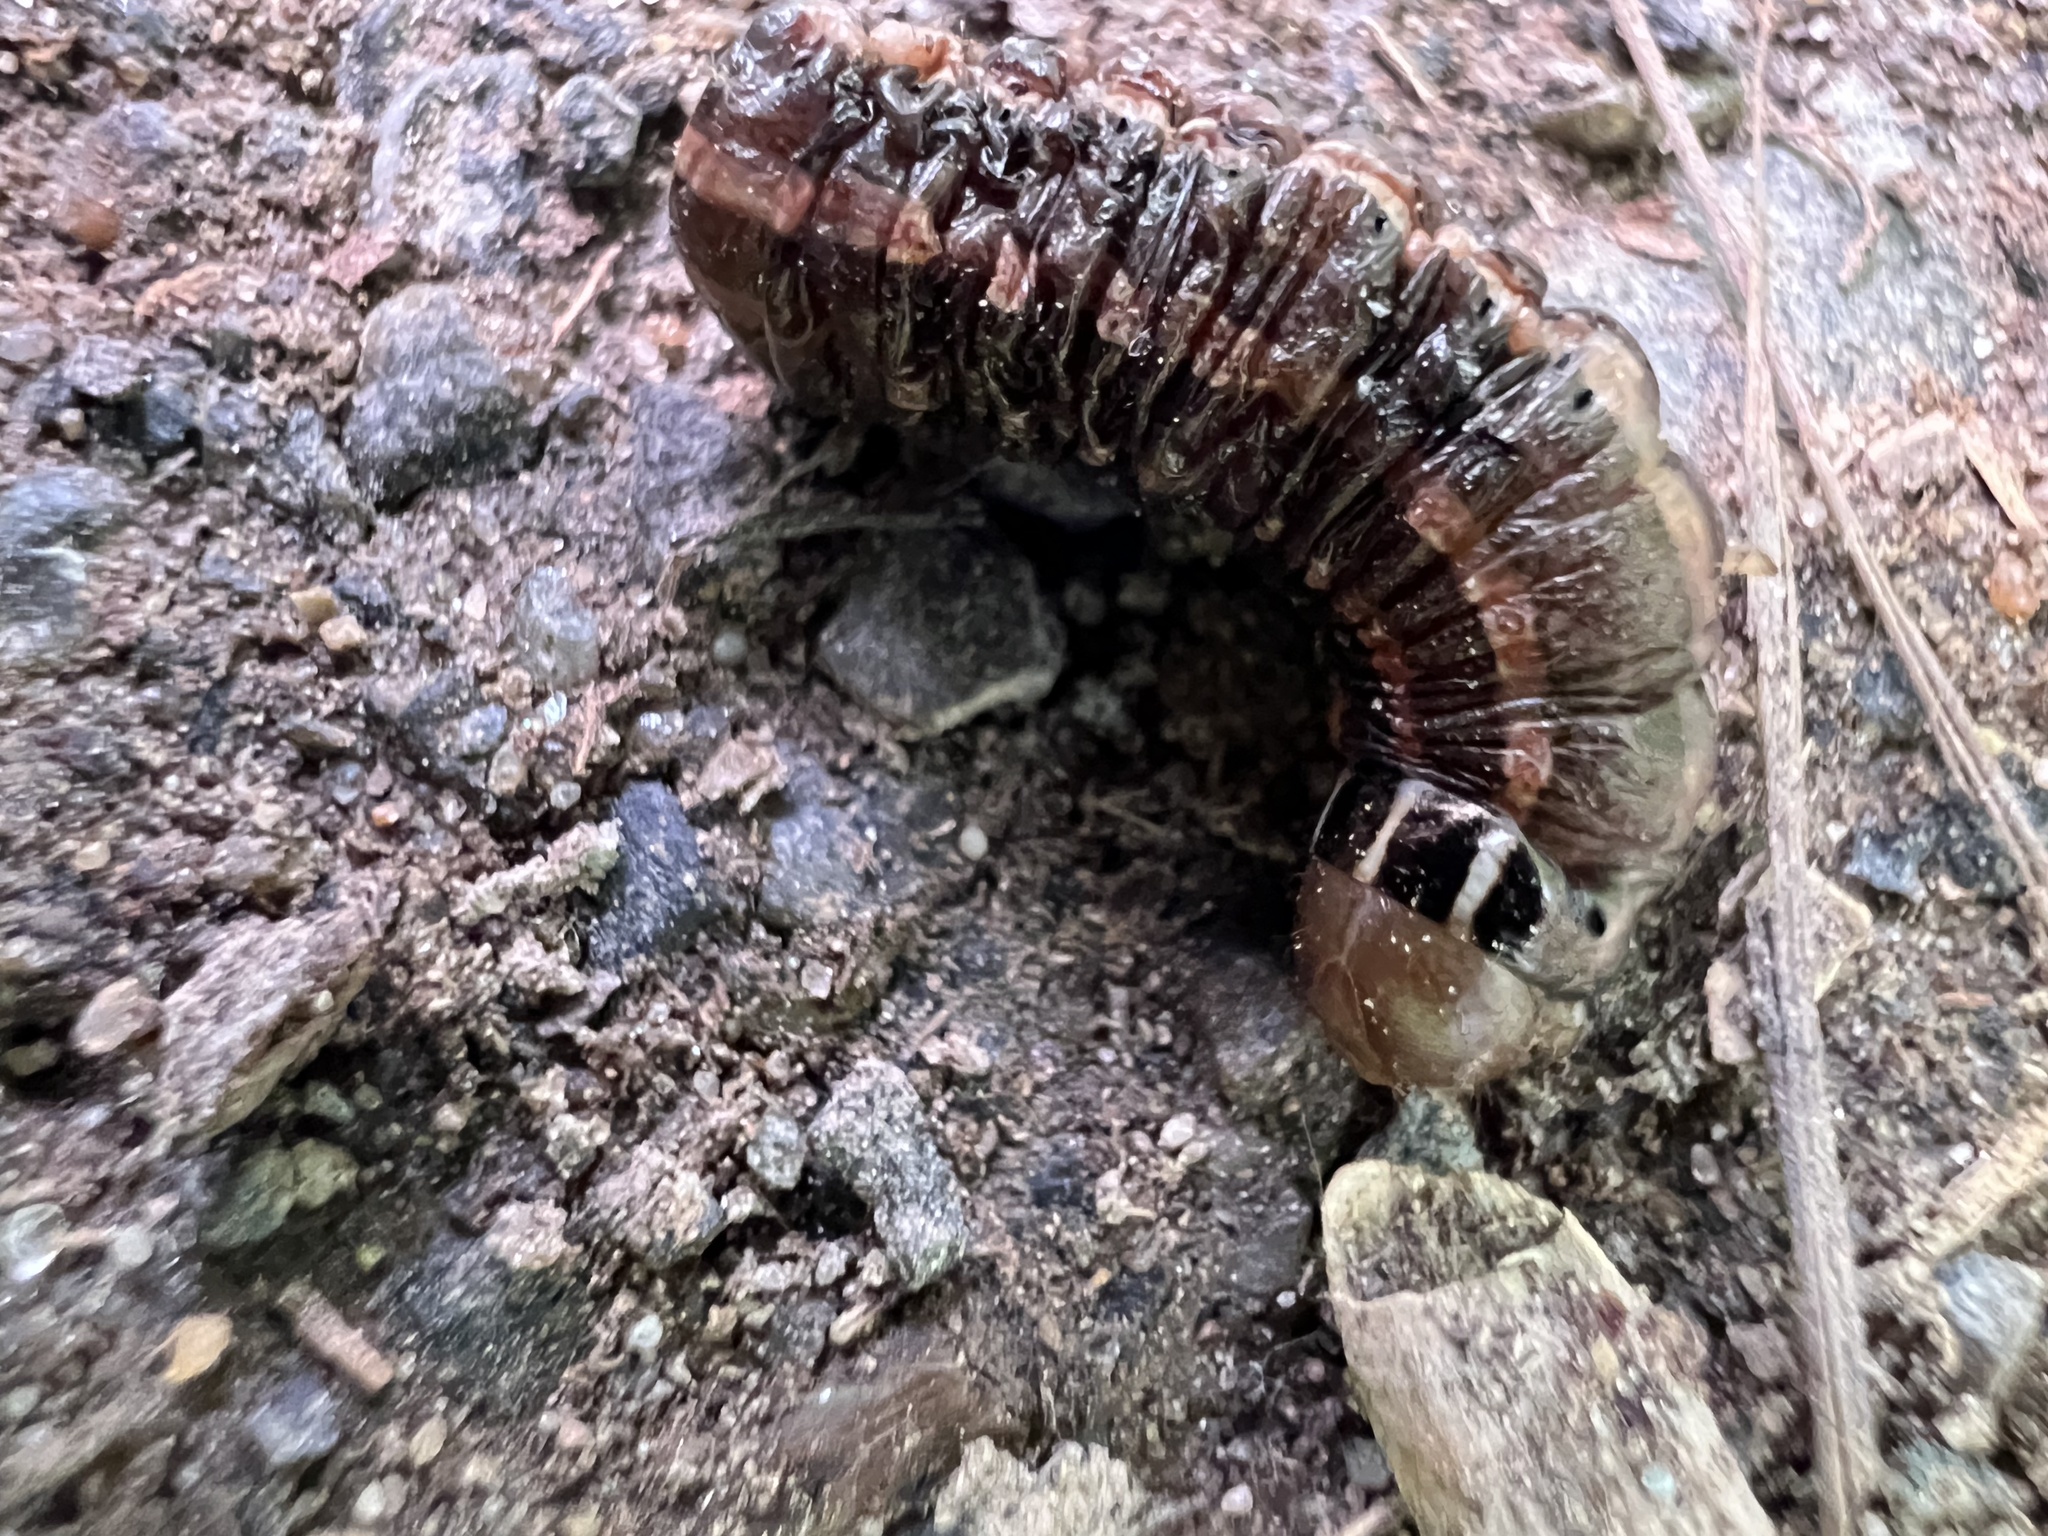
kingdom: Animalia
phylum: Arthropoda
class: Insecta
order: Lepidoptera
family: Noctuidae
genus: Nephelodes
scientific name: Nephelodes minians
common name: Bronzed cutworm
